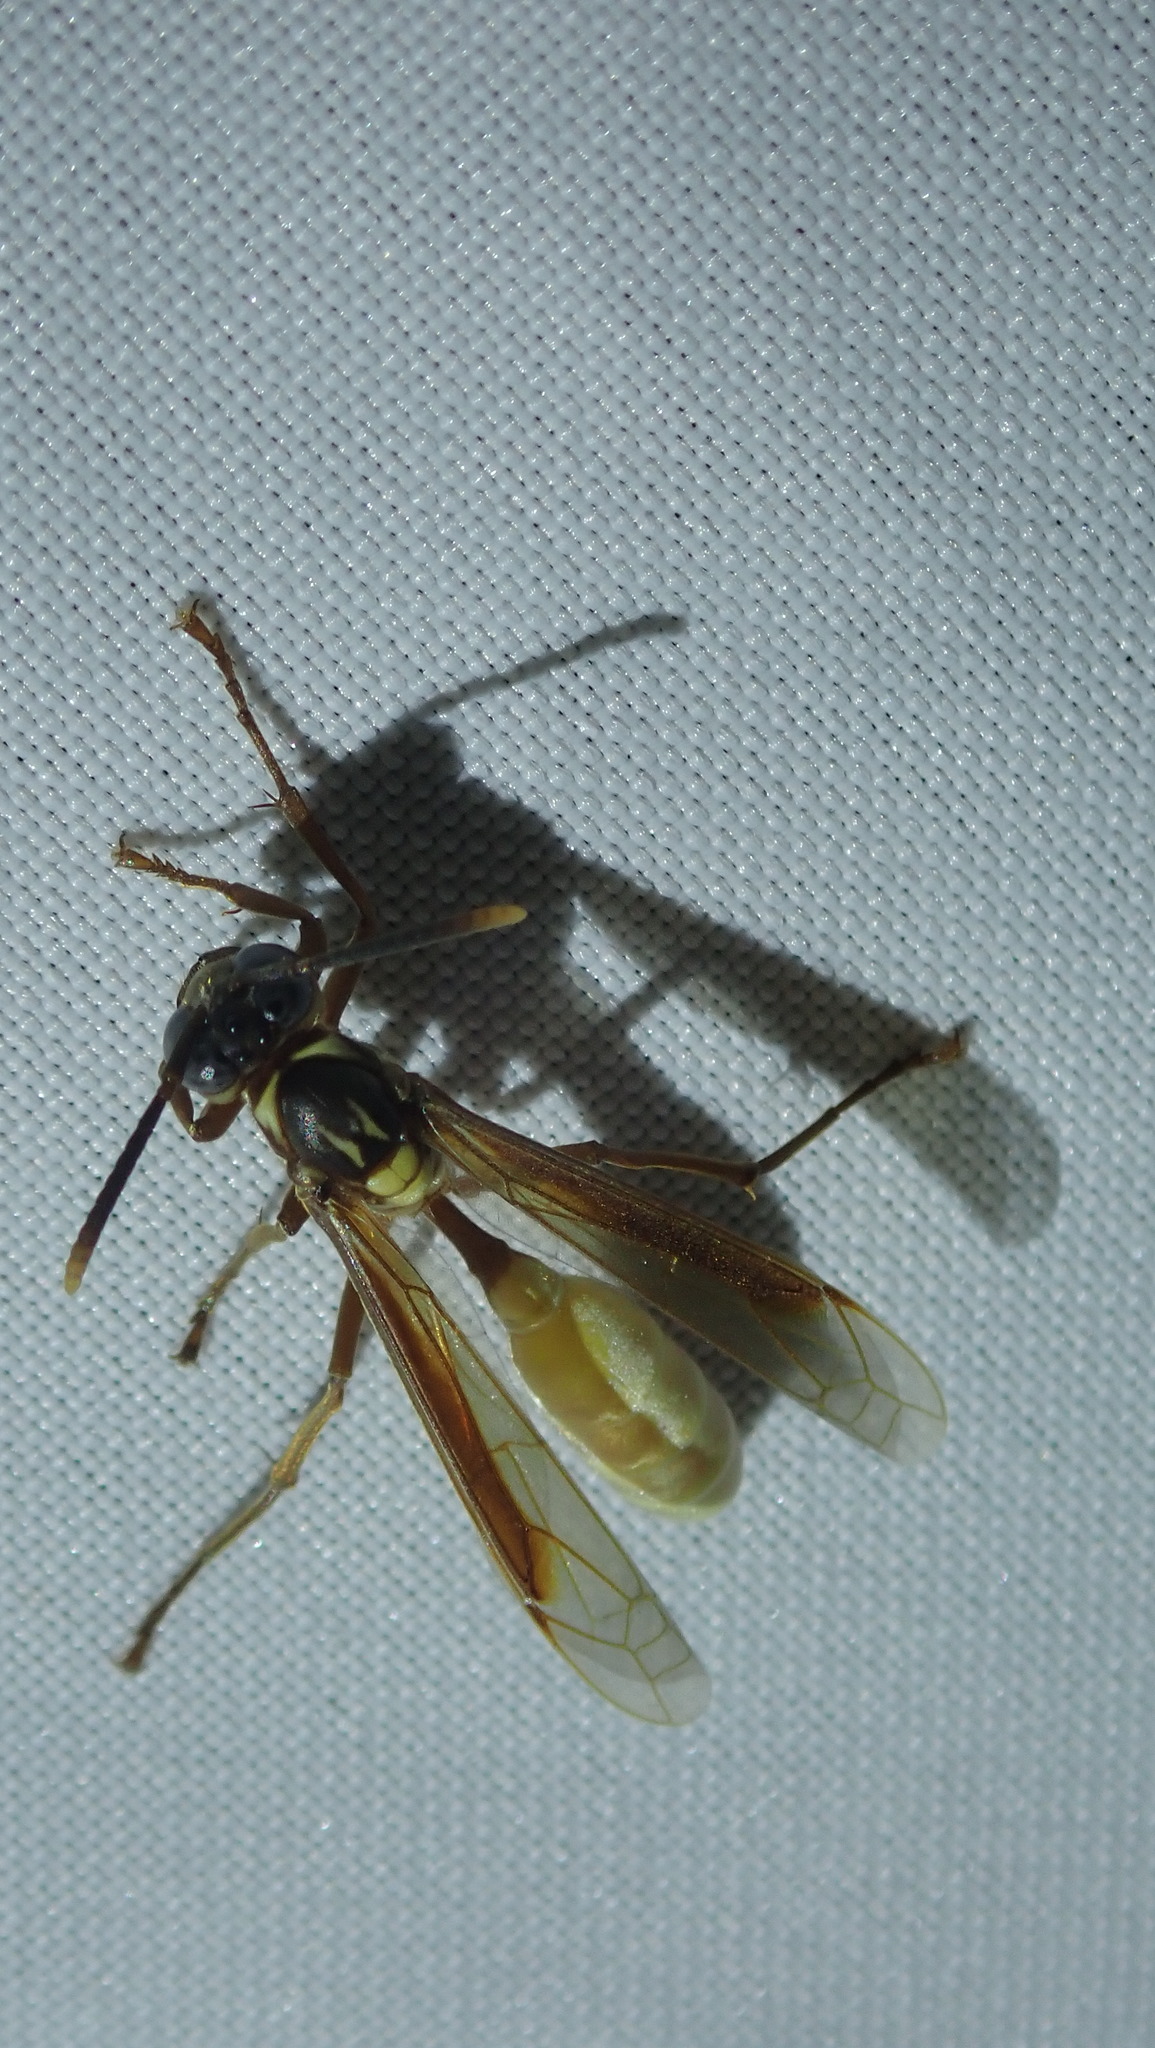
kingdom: Animalia
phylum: Arthropoda
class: Insecta
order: Hymenoptera
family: Vespidae
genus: Apoica
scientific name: Apoica pallens
